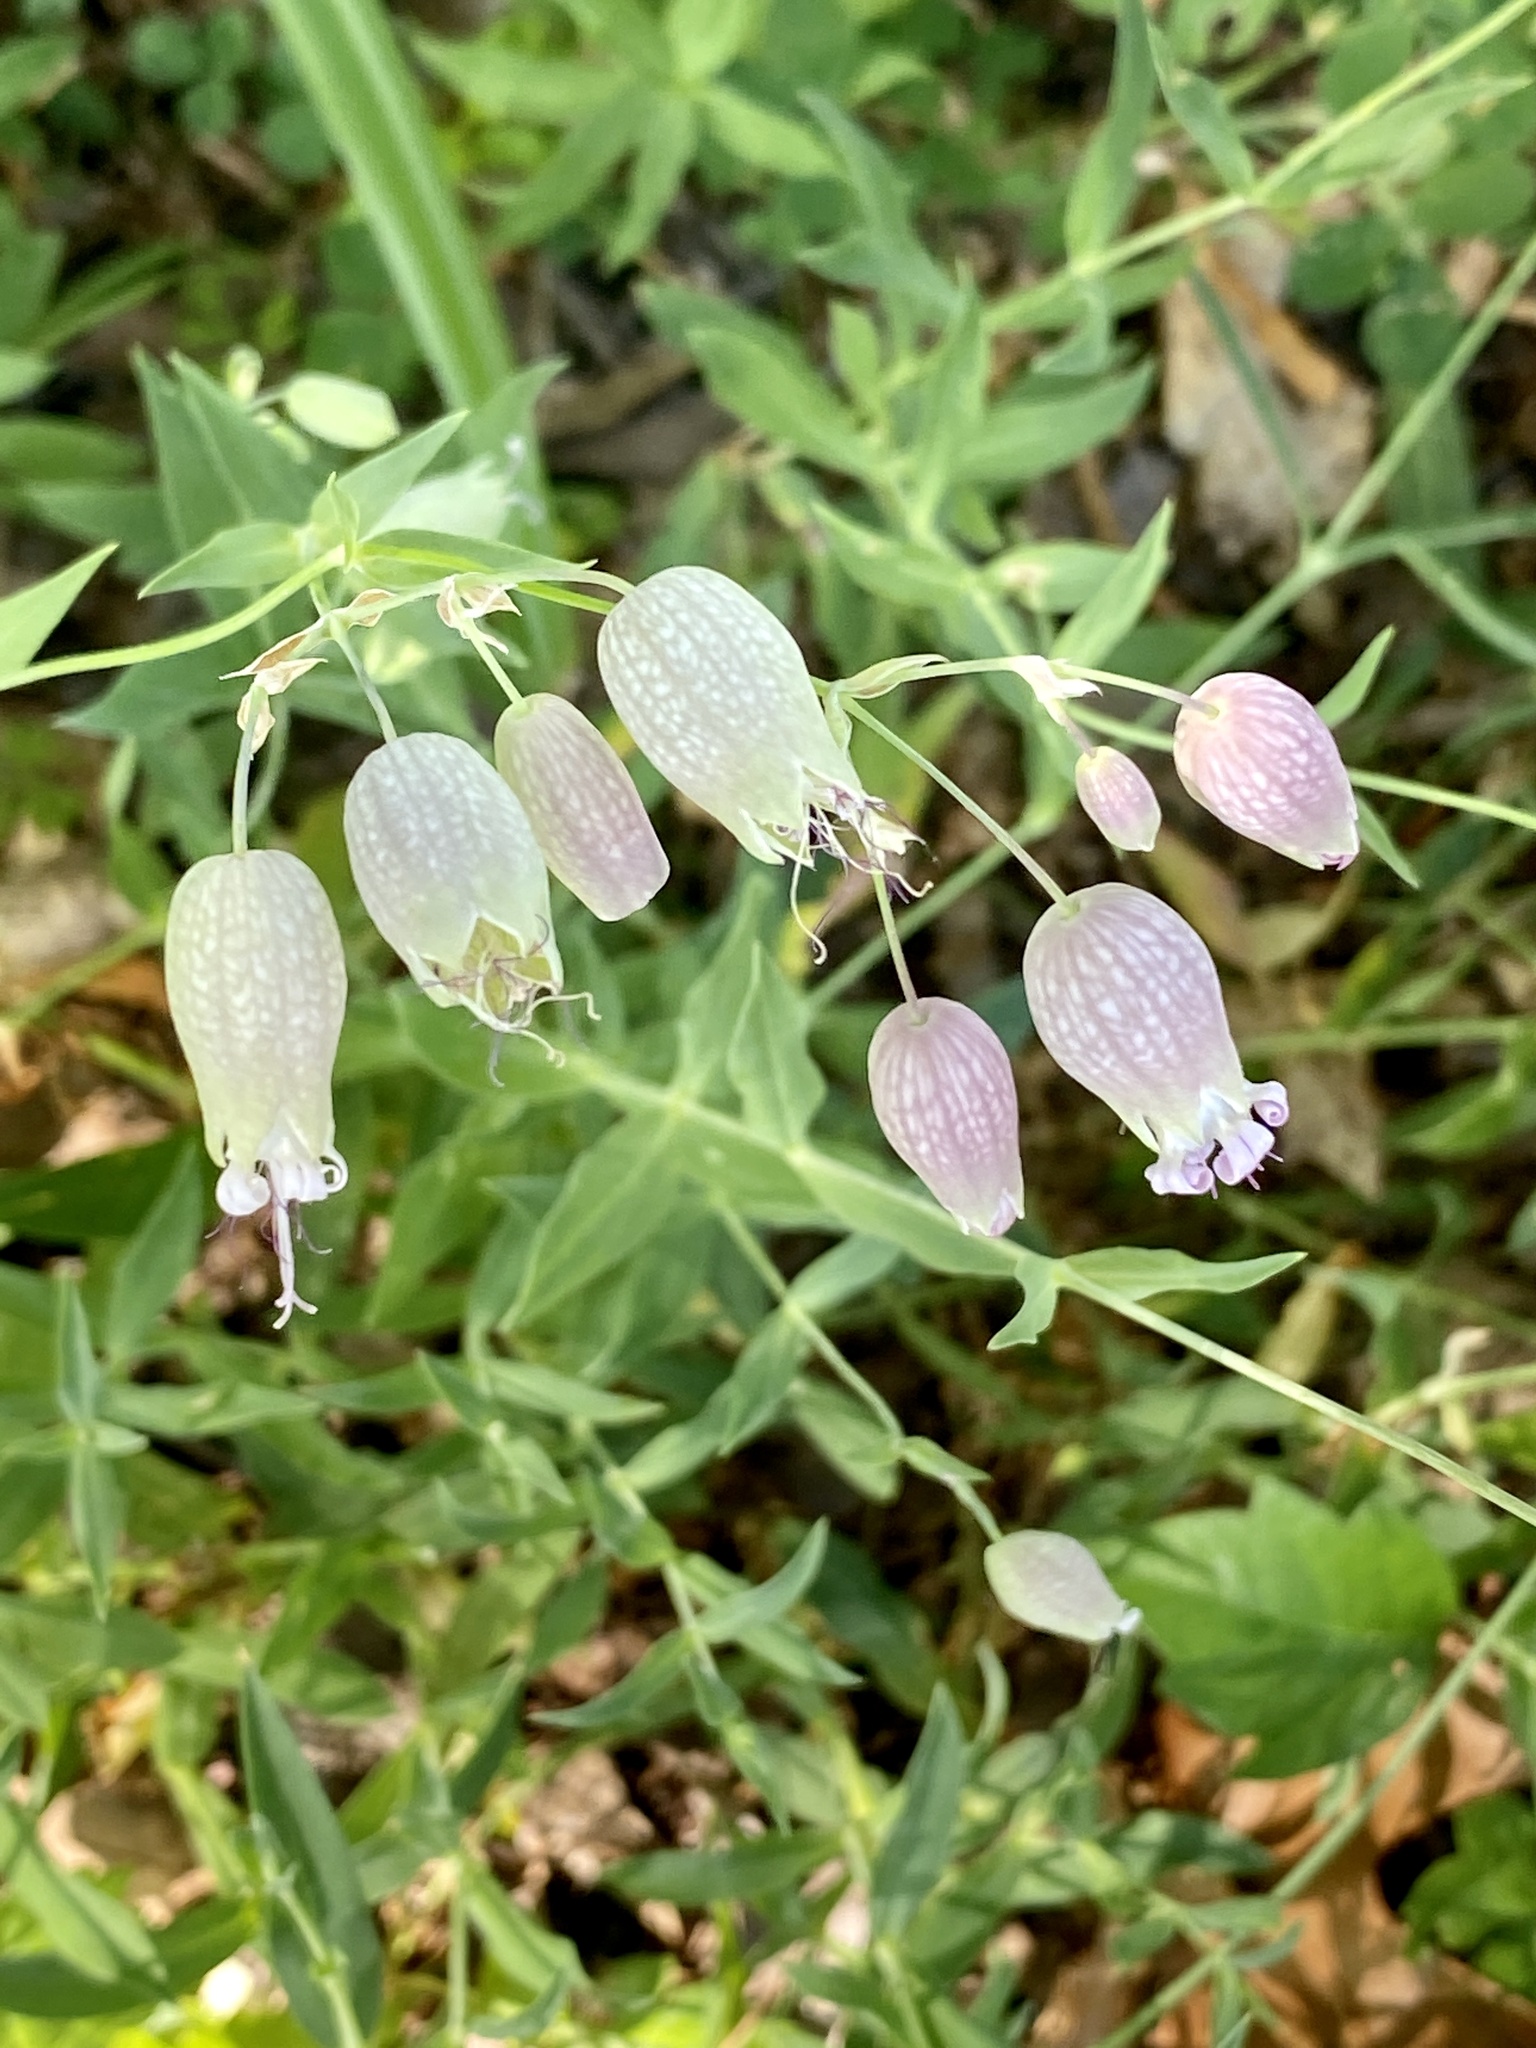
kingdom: Plantae
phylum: Tracheophyta
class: Magnoliopsida
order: Caryophyllales
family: Caryophyllaceae
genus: Silene
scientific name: Silene vulgaris
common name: Bladder campion
